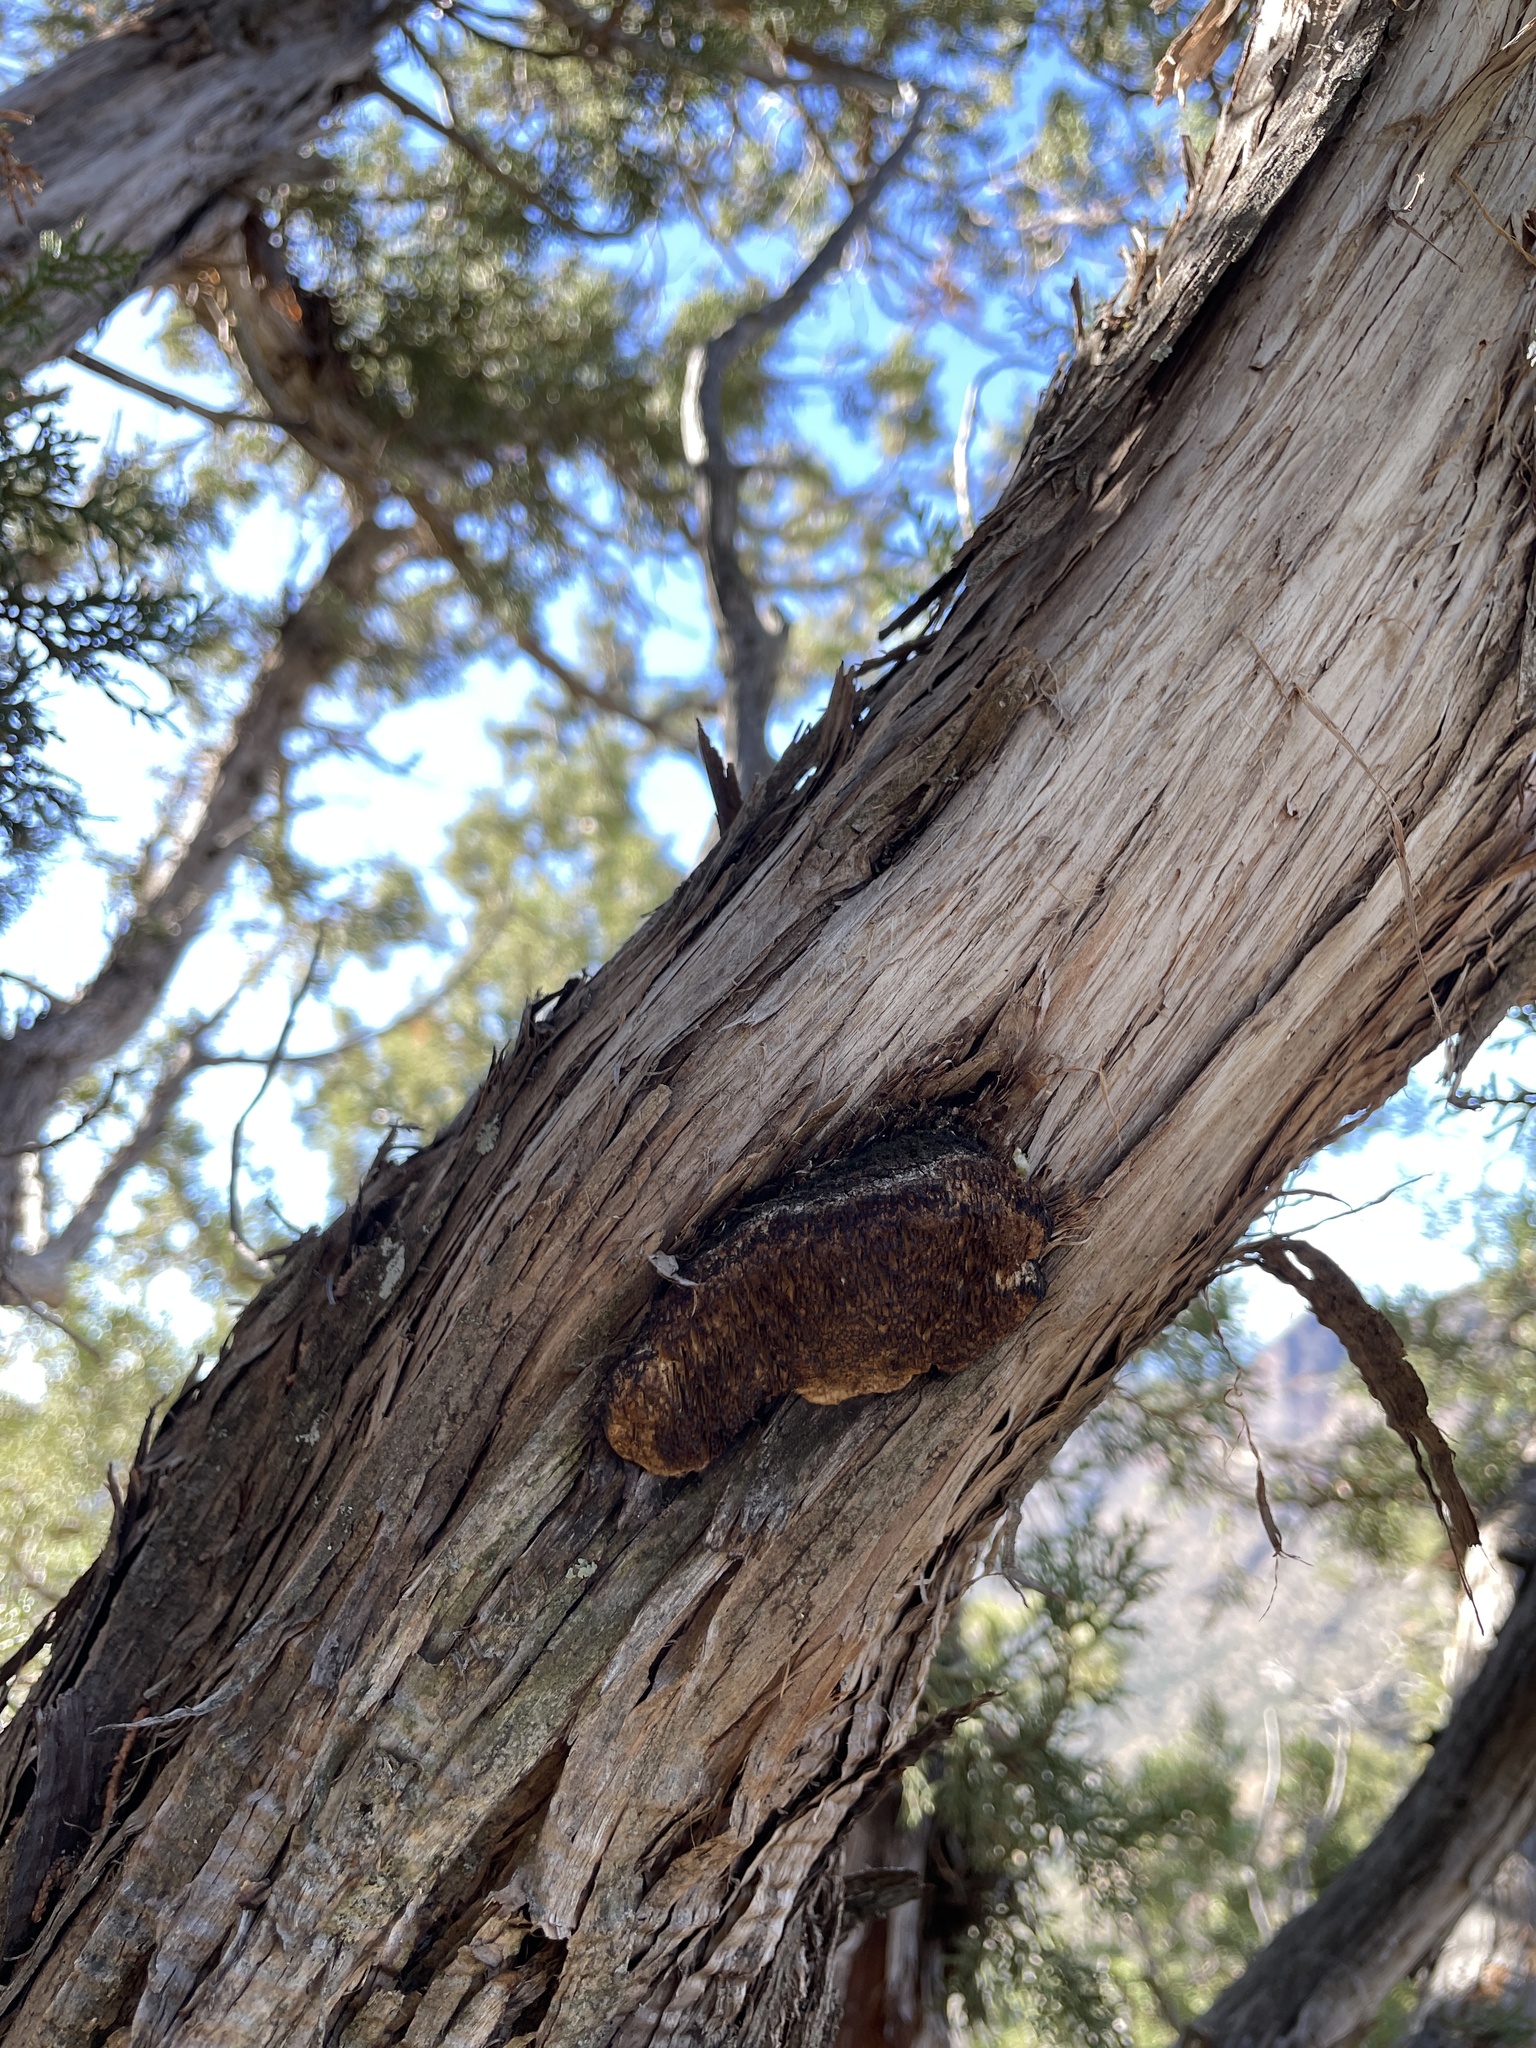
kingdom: Fungi
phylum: Basidiomycota
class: Agaricomycetes
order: Polyporales
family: Fomitopsidaceae
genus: Fomitopsis
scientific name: Fomitopsis
